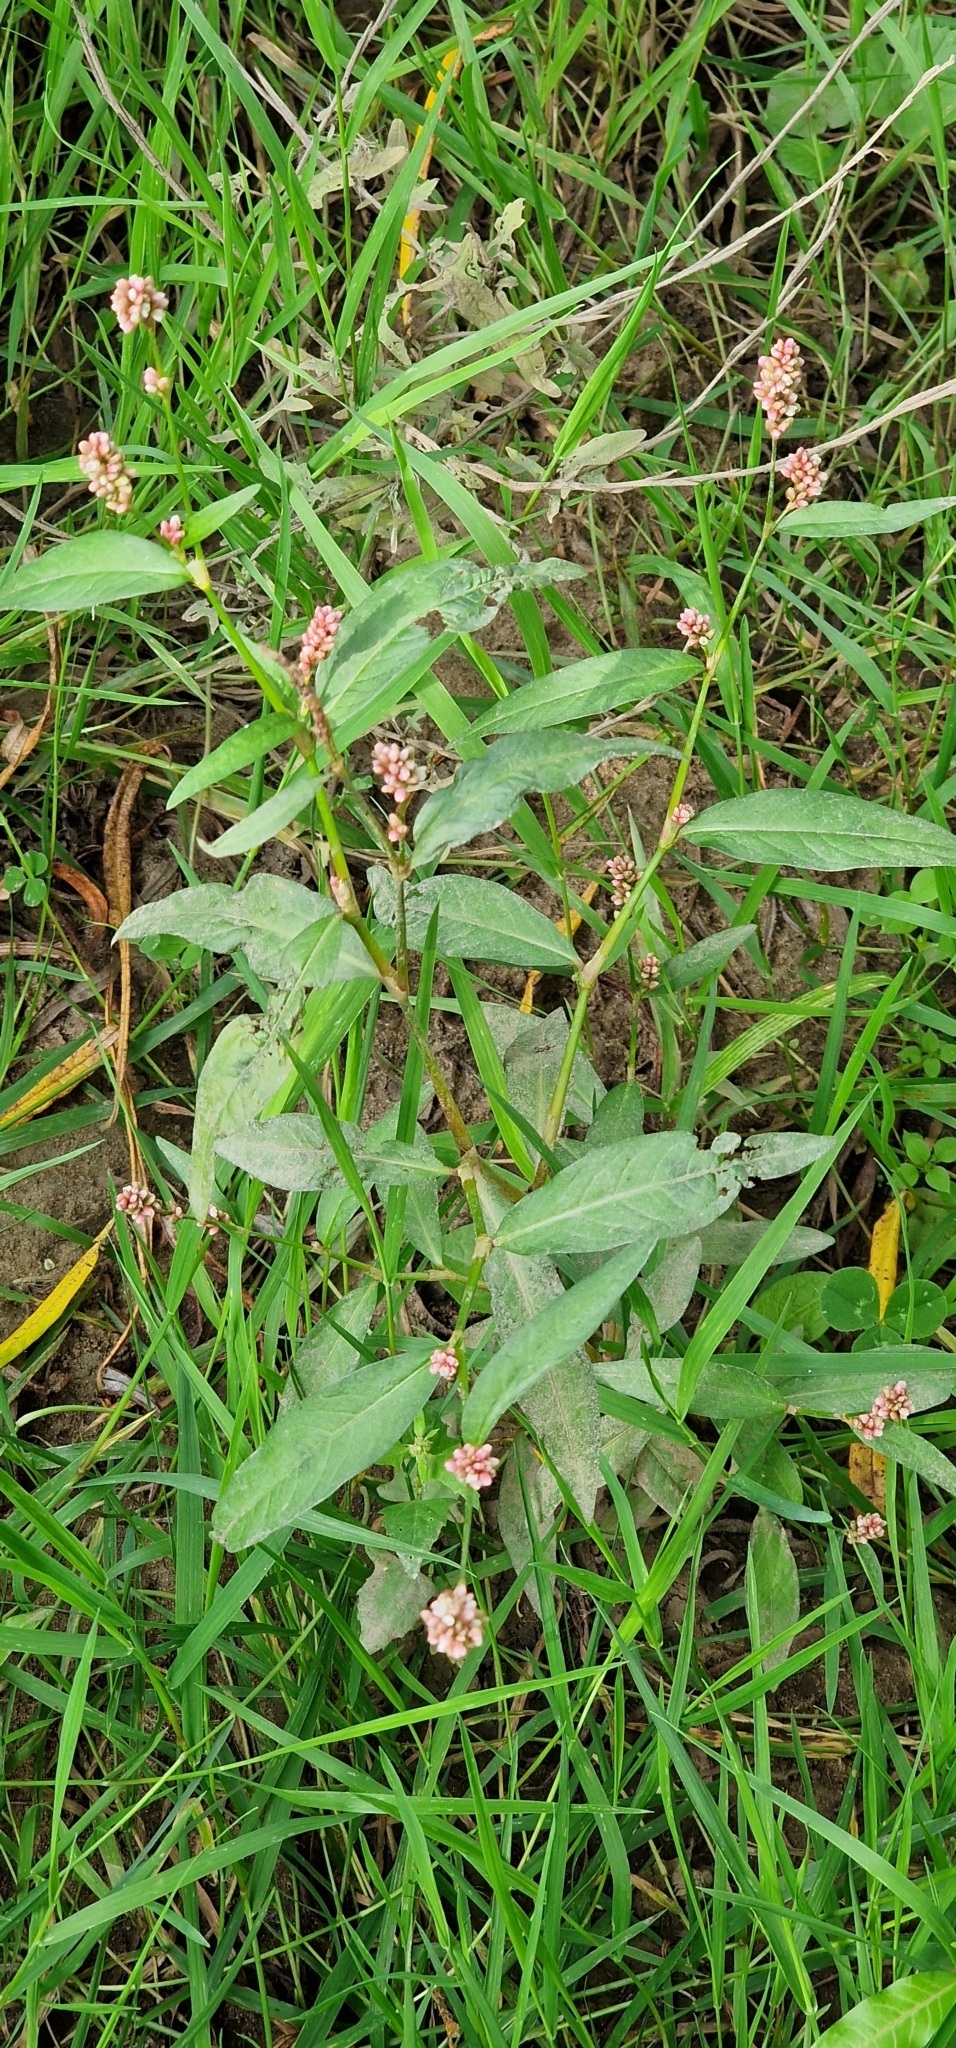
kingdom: Plantae
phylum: Tracheophyta
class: Magnoliopsida
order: Caryophyllales
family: Polygonaceae
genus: Persicaria
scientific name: Persicaria maculosa
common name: Redshank
